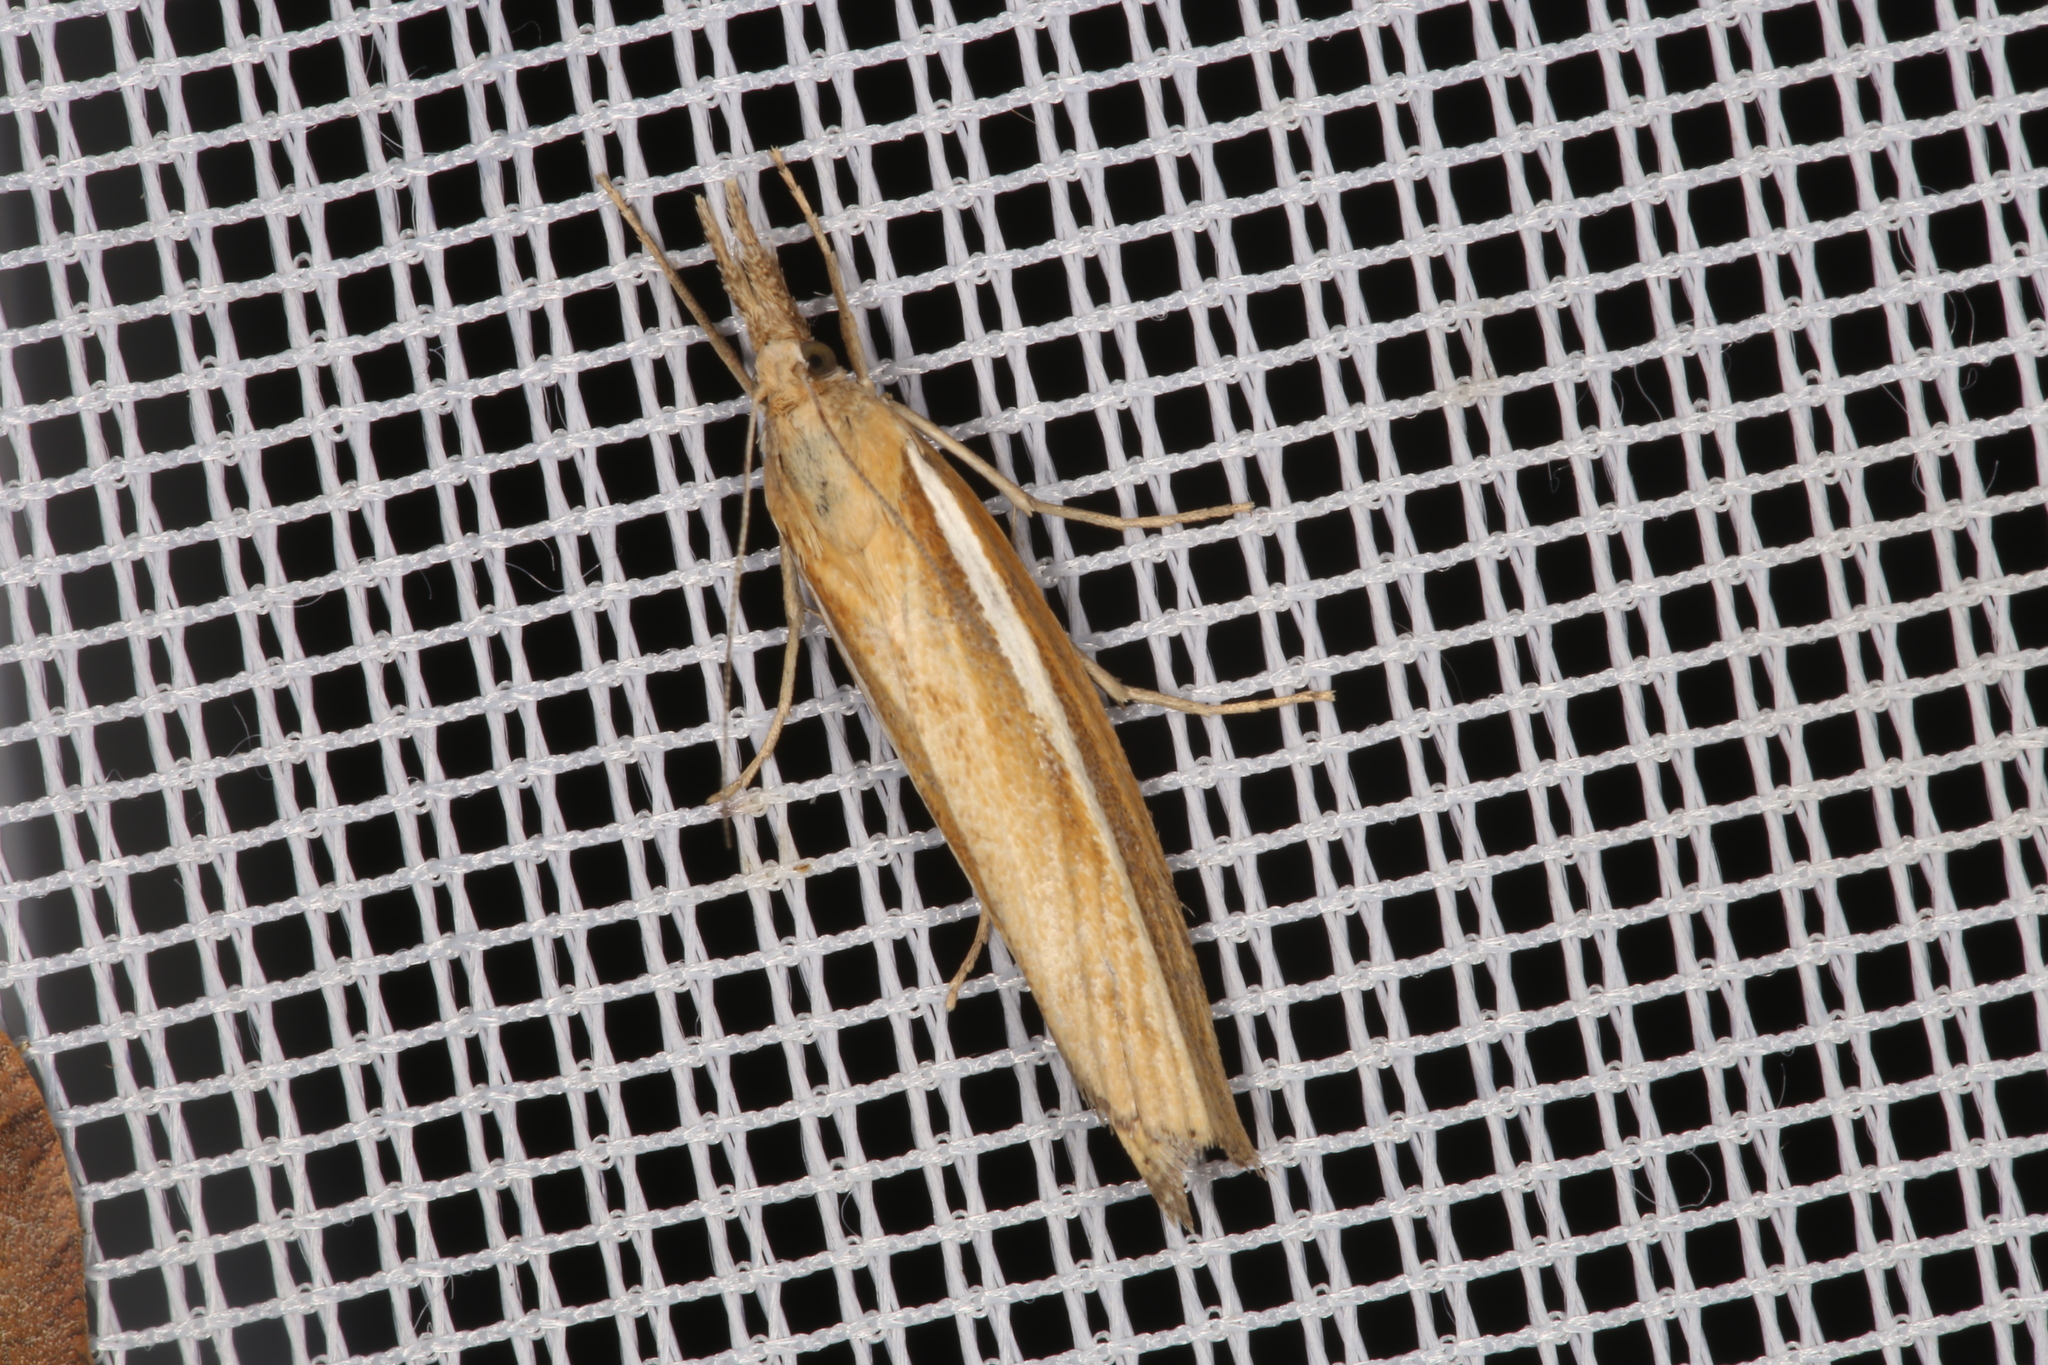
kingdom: Animalia
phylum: Arthropoda
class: Insecta
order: Lepidoptera
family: Crambidae
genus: Agriphila
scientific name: Agriphila tristellus
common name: Common grass-veneer
